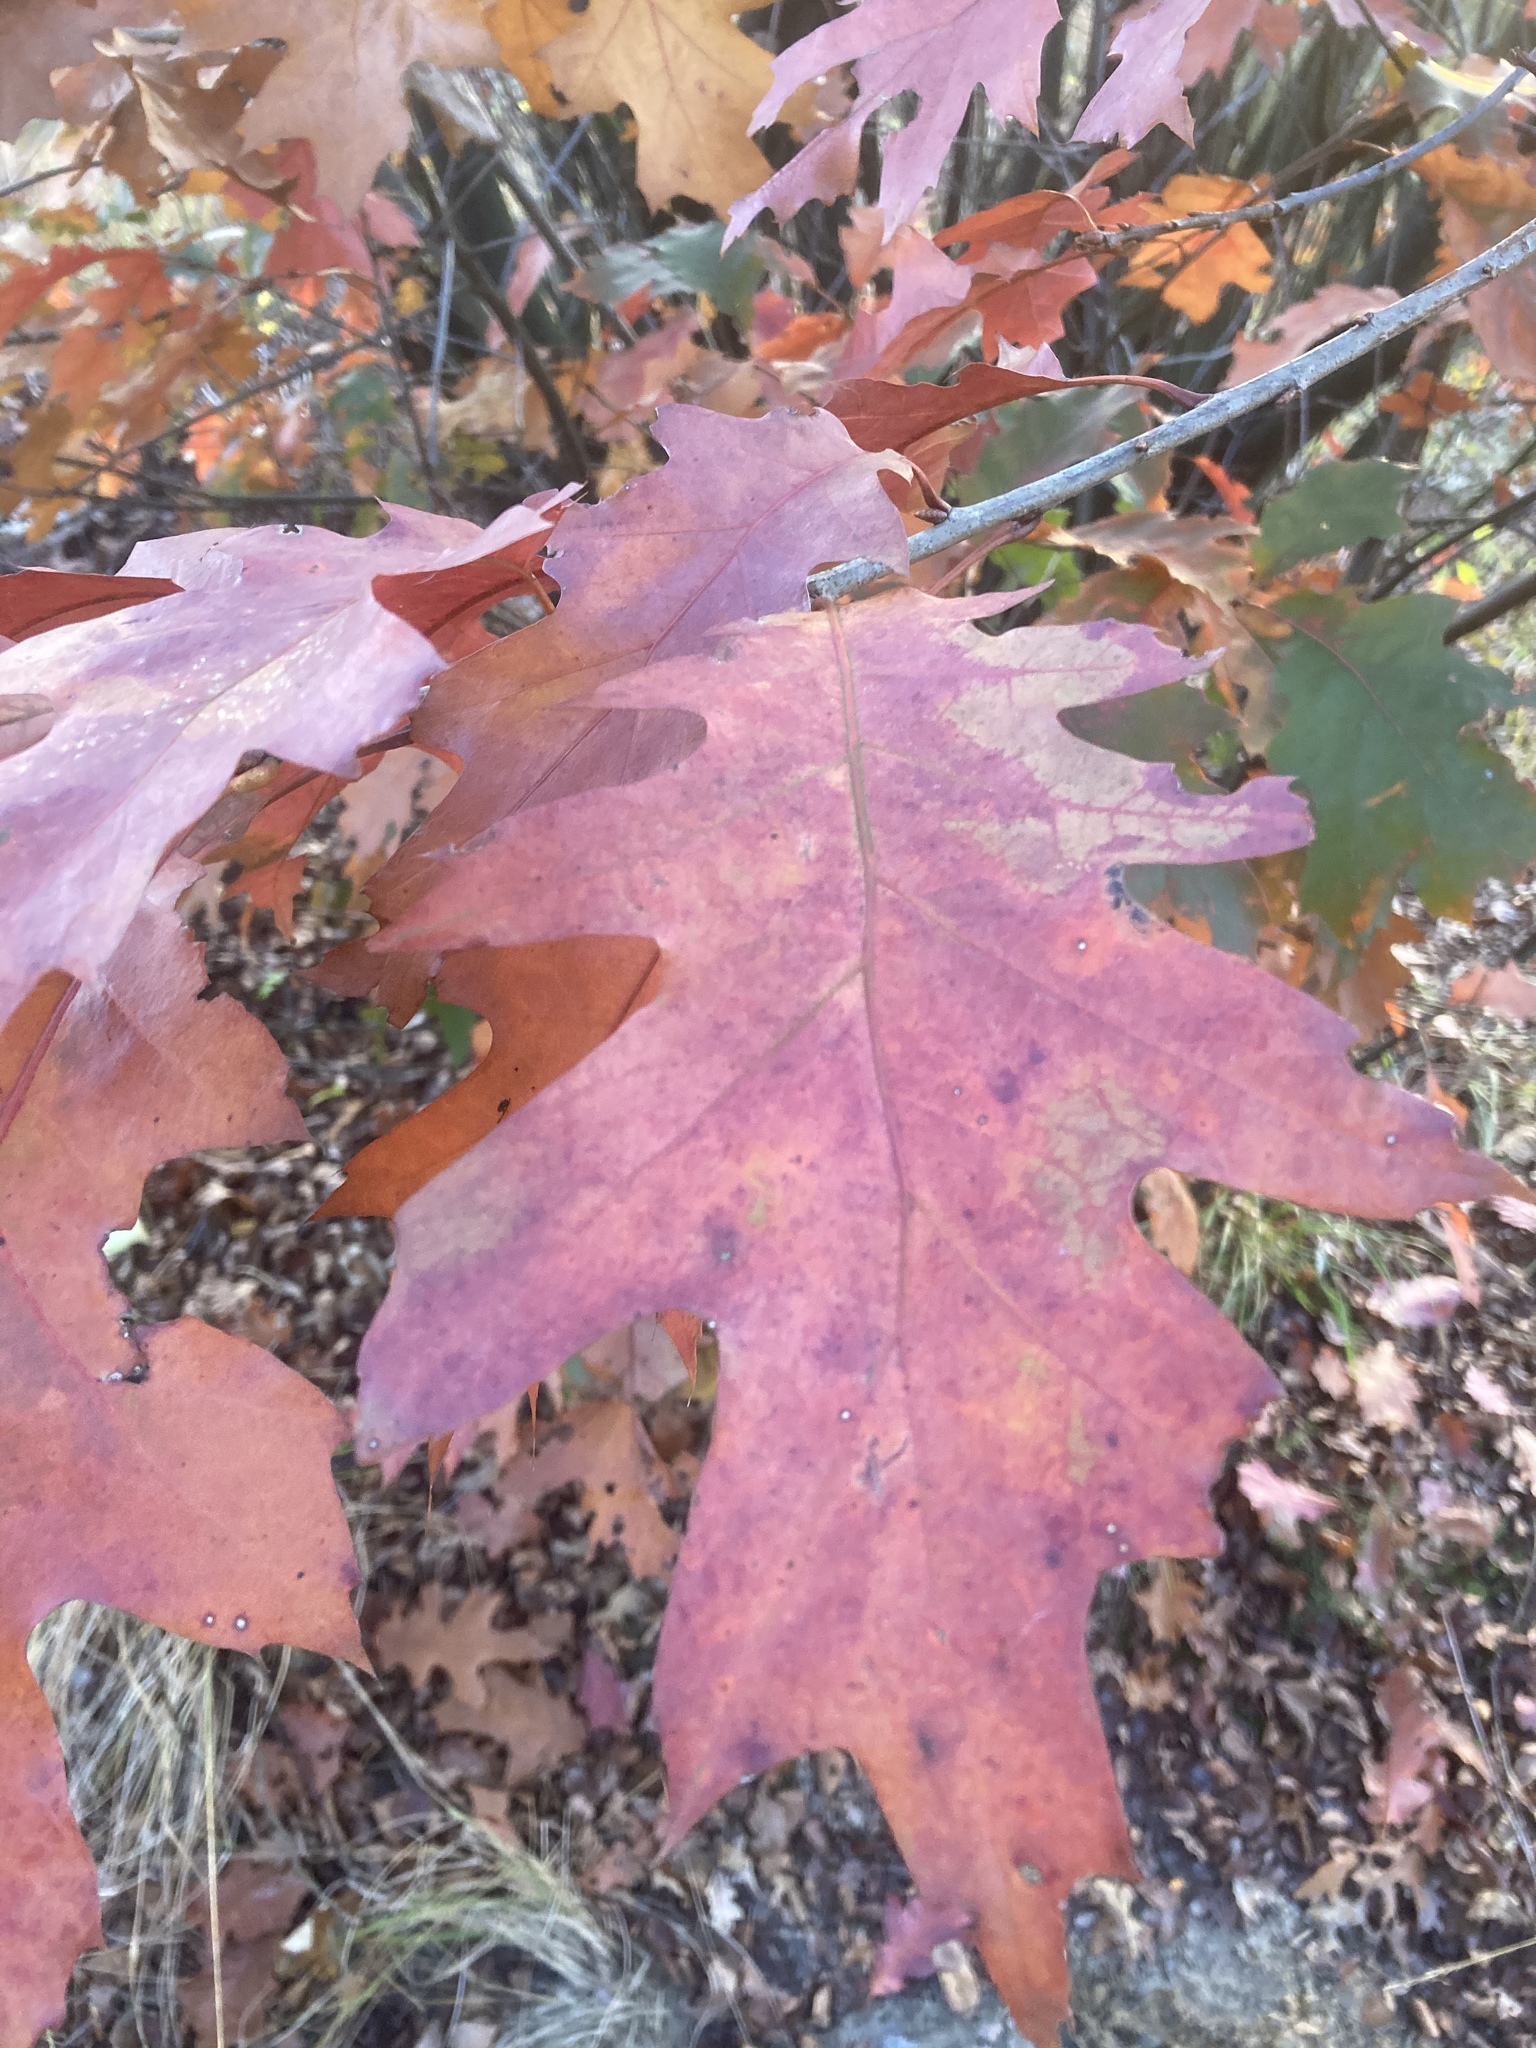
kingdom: Plantae
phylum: Tracheophyta
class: Magnoliopsida
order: Fagales
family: Fagaceae
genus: Quercus
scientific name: Quercus rubra
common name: Red oak
